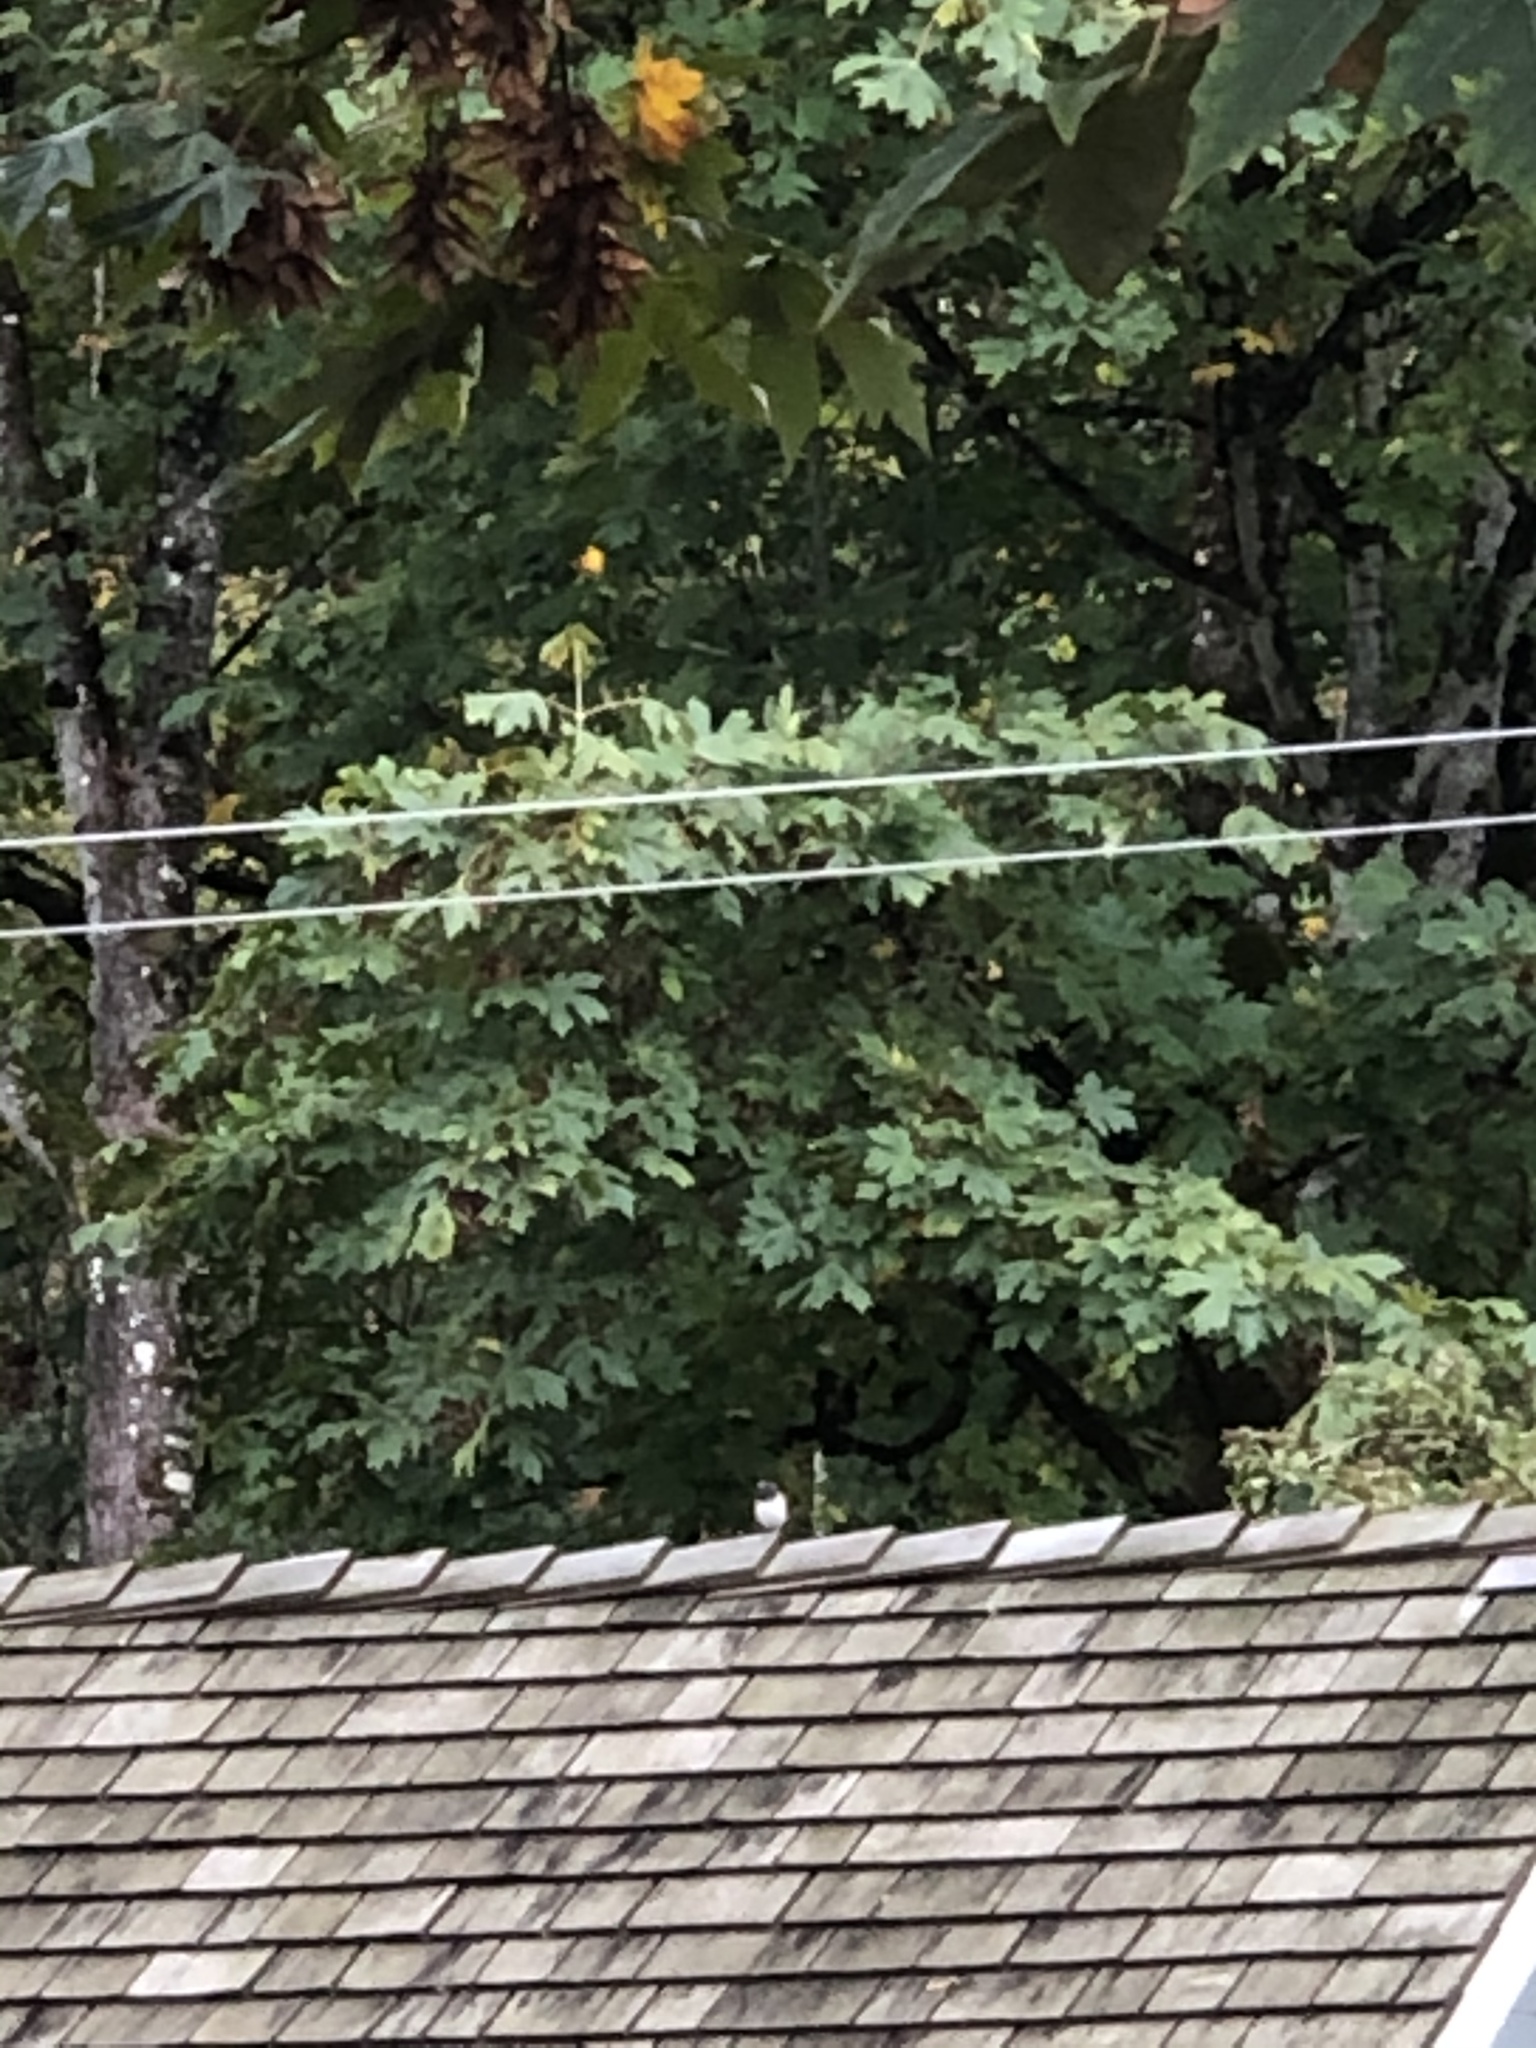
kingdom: Animalia
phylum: Chordata
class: Aves
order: Passeriformes
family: Passerellidae
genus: Junco
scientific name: Junco hyemalis
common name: Dark-eyed junco
